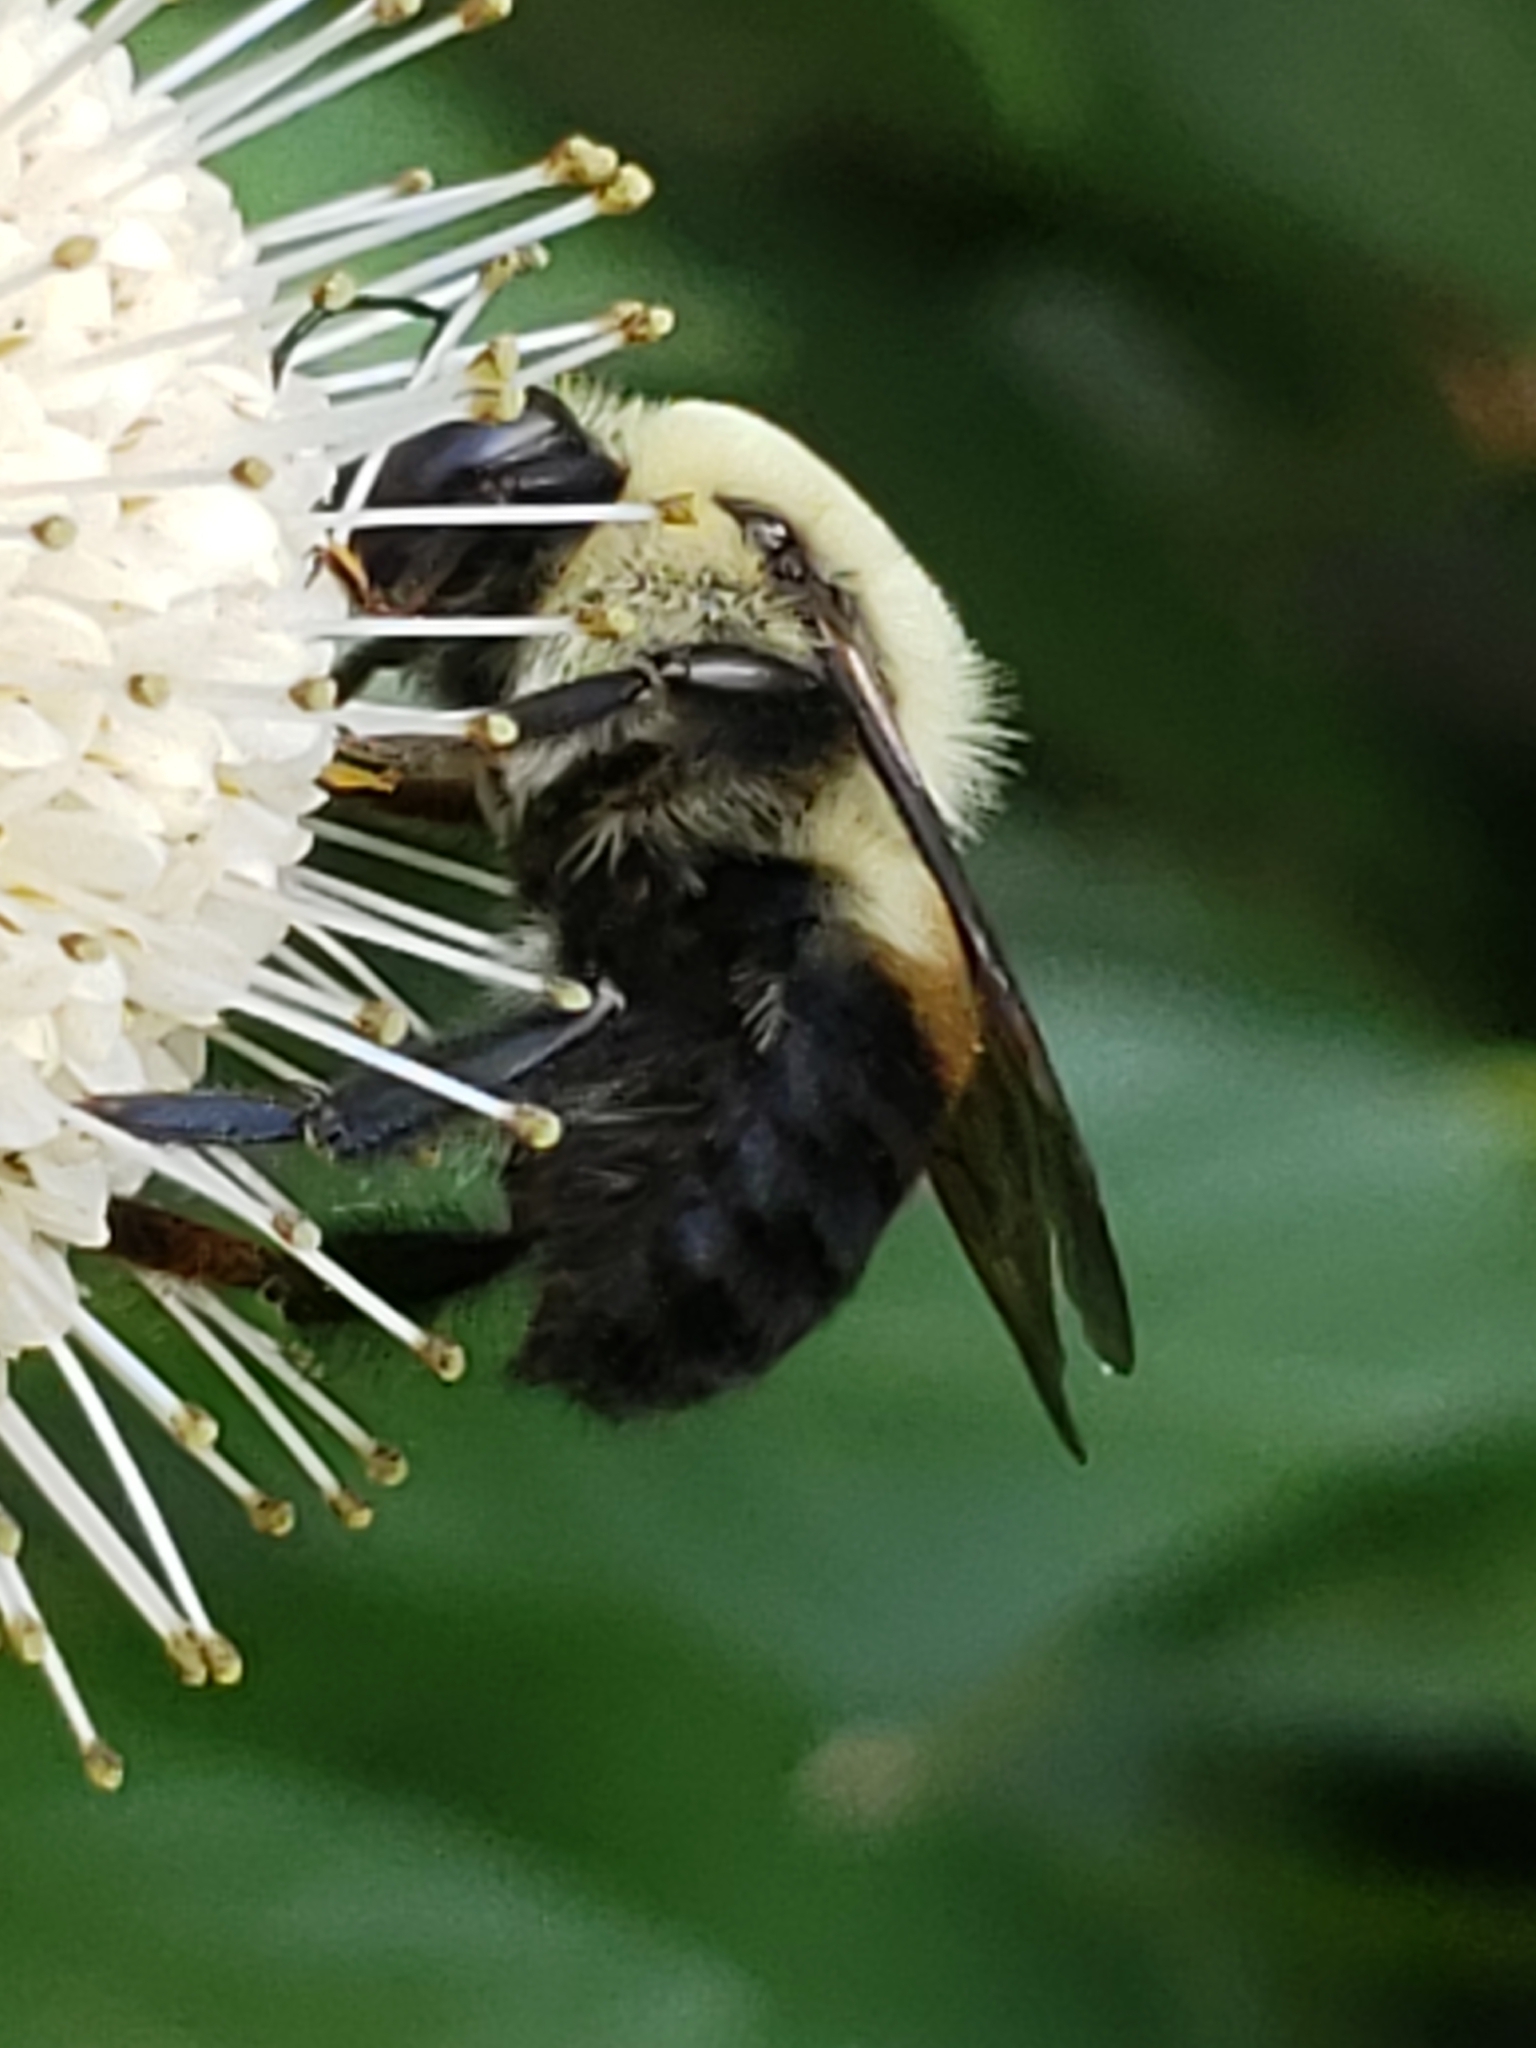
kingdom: Animalia
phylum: Arthropoda
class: Insecta
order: Hymenoptera
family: Apidae
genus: Bombus
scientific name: Bombus griseocollis
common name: Brown-belted bumble bee
